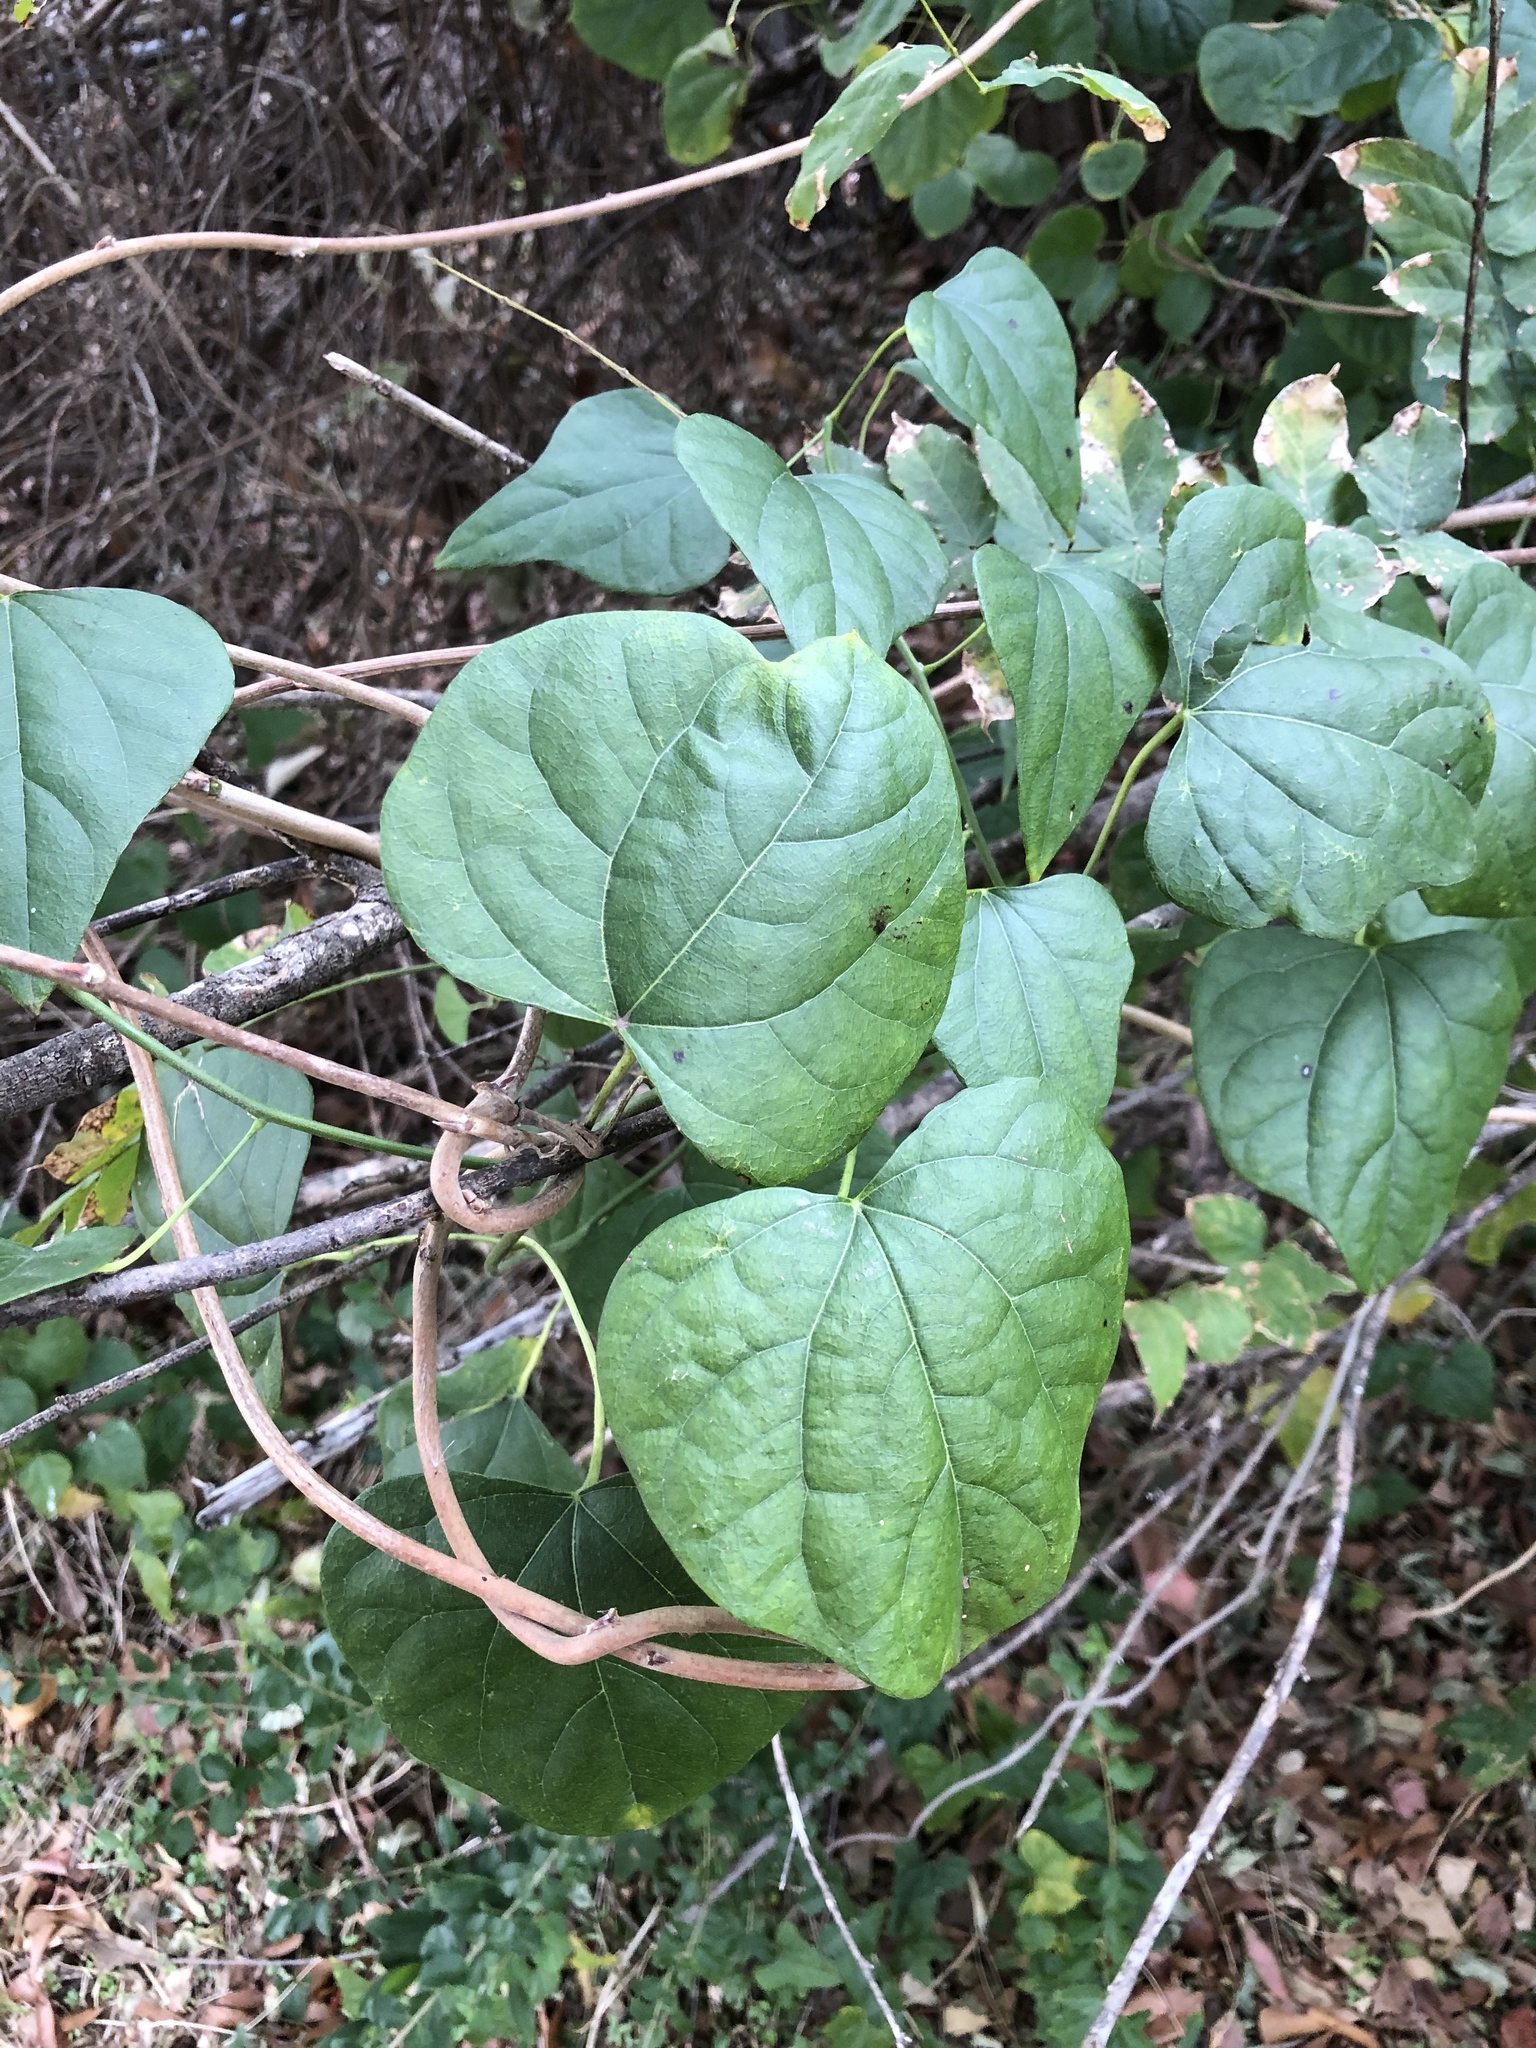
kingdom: Plantae
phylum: Tracheophyta
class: Magnoliopsida
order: Ranunculales
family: Menispermaceae
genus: Cocculus
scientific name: Cocculus carolinus
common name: Carolina moonseed
